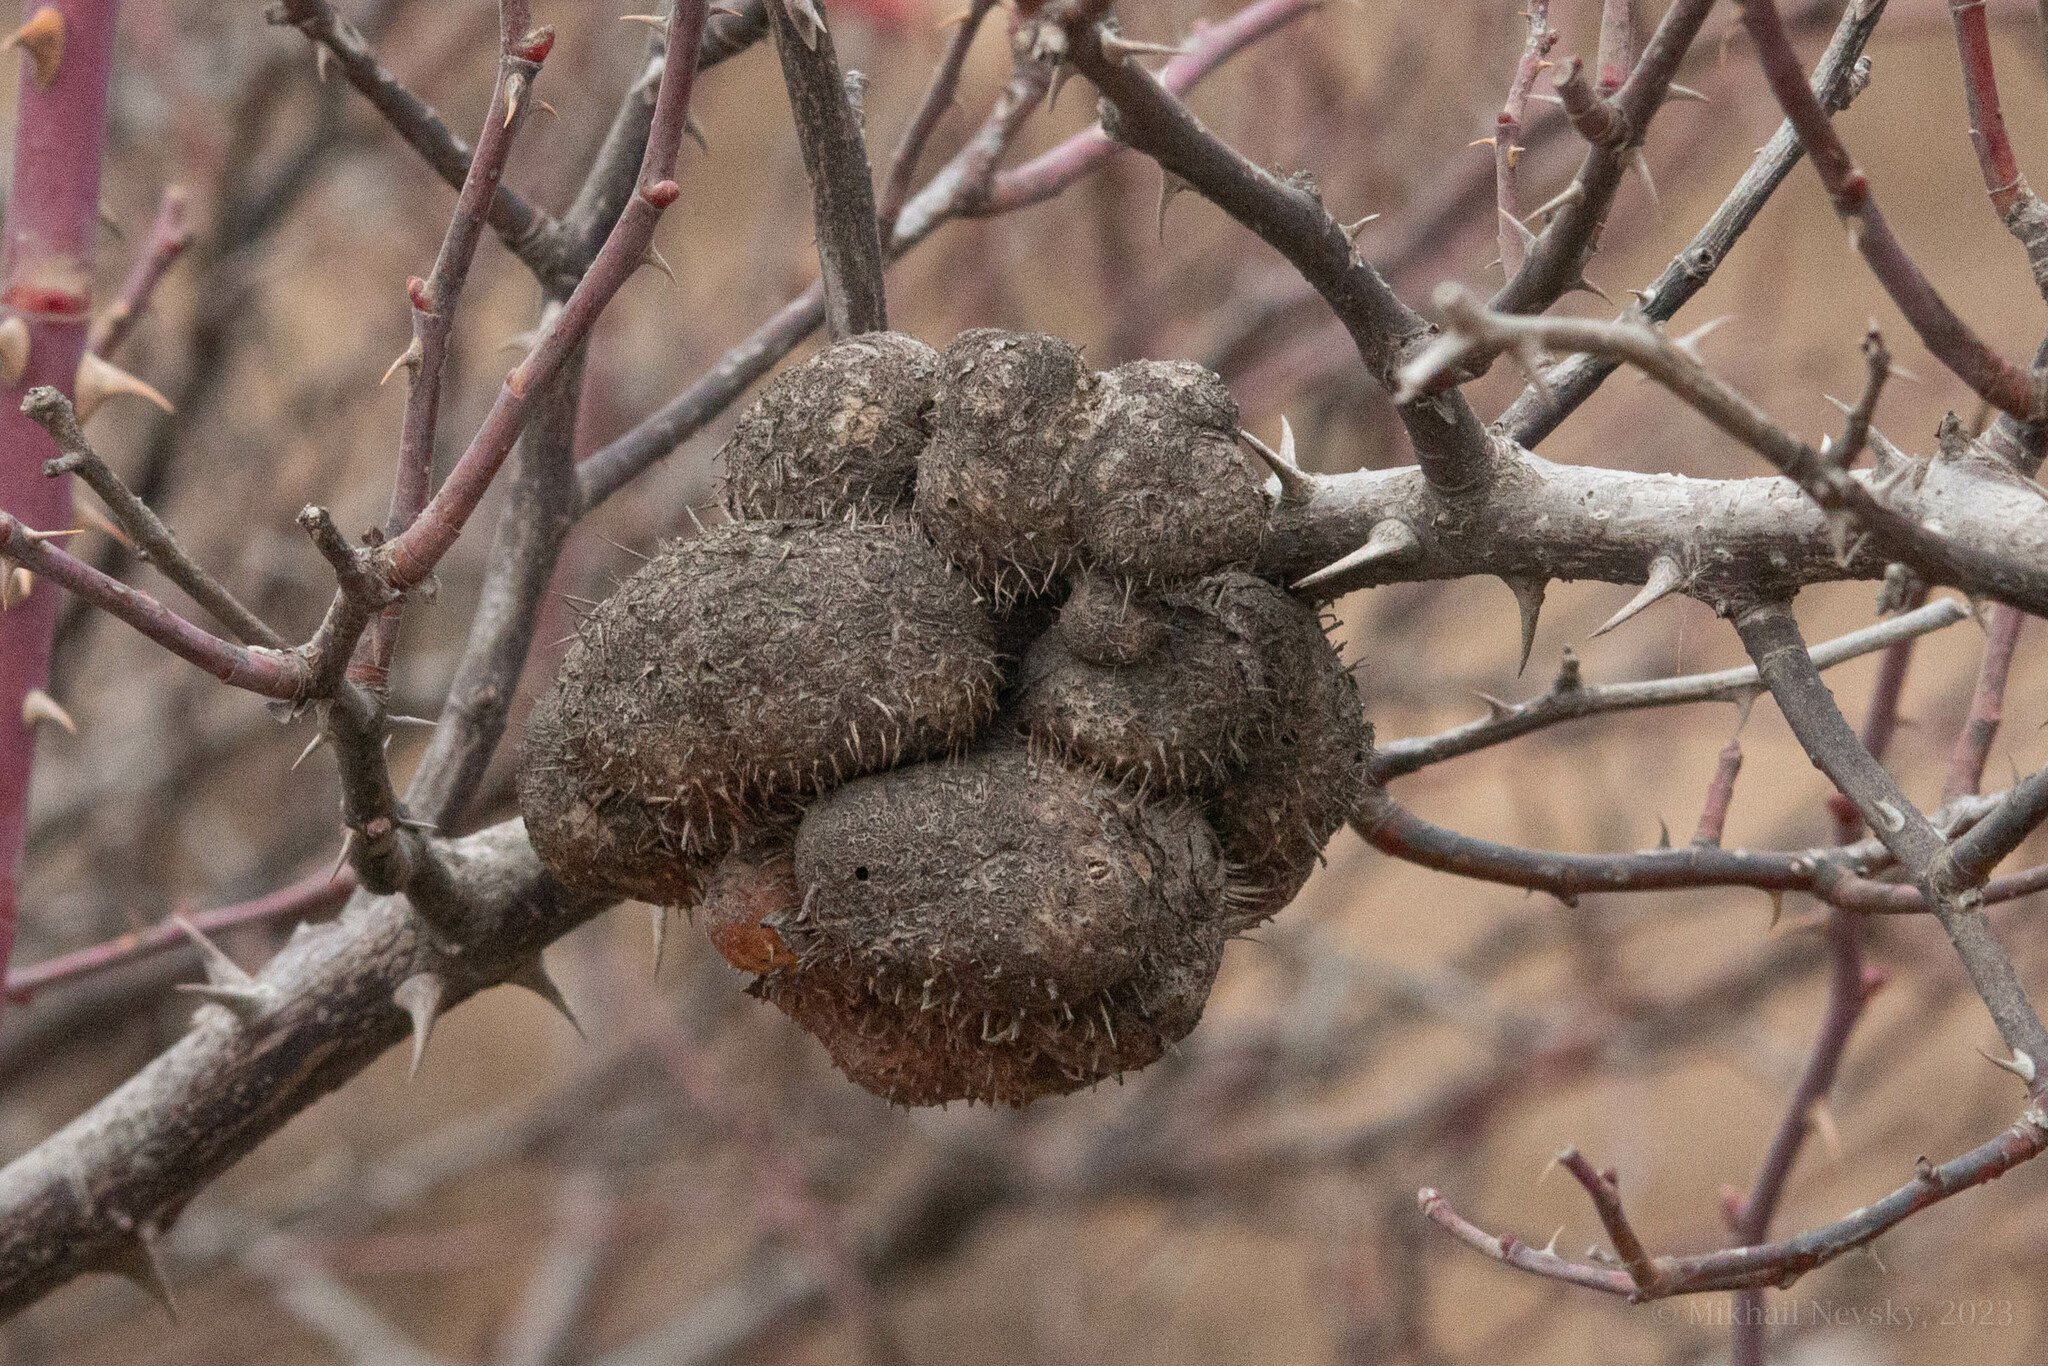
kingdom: Animalia
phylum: Arthropoda
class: Insecta
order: Hymenoptera
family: Cynipidae
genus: Diplolepis
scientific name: Diplolepis mayri
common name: Gall wasp
